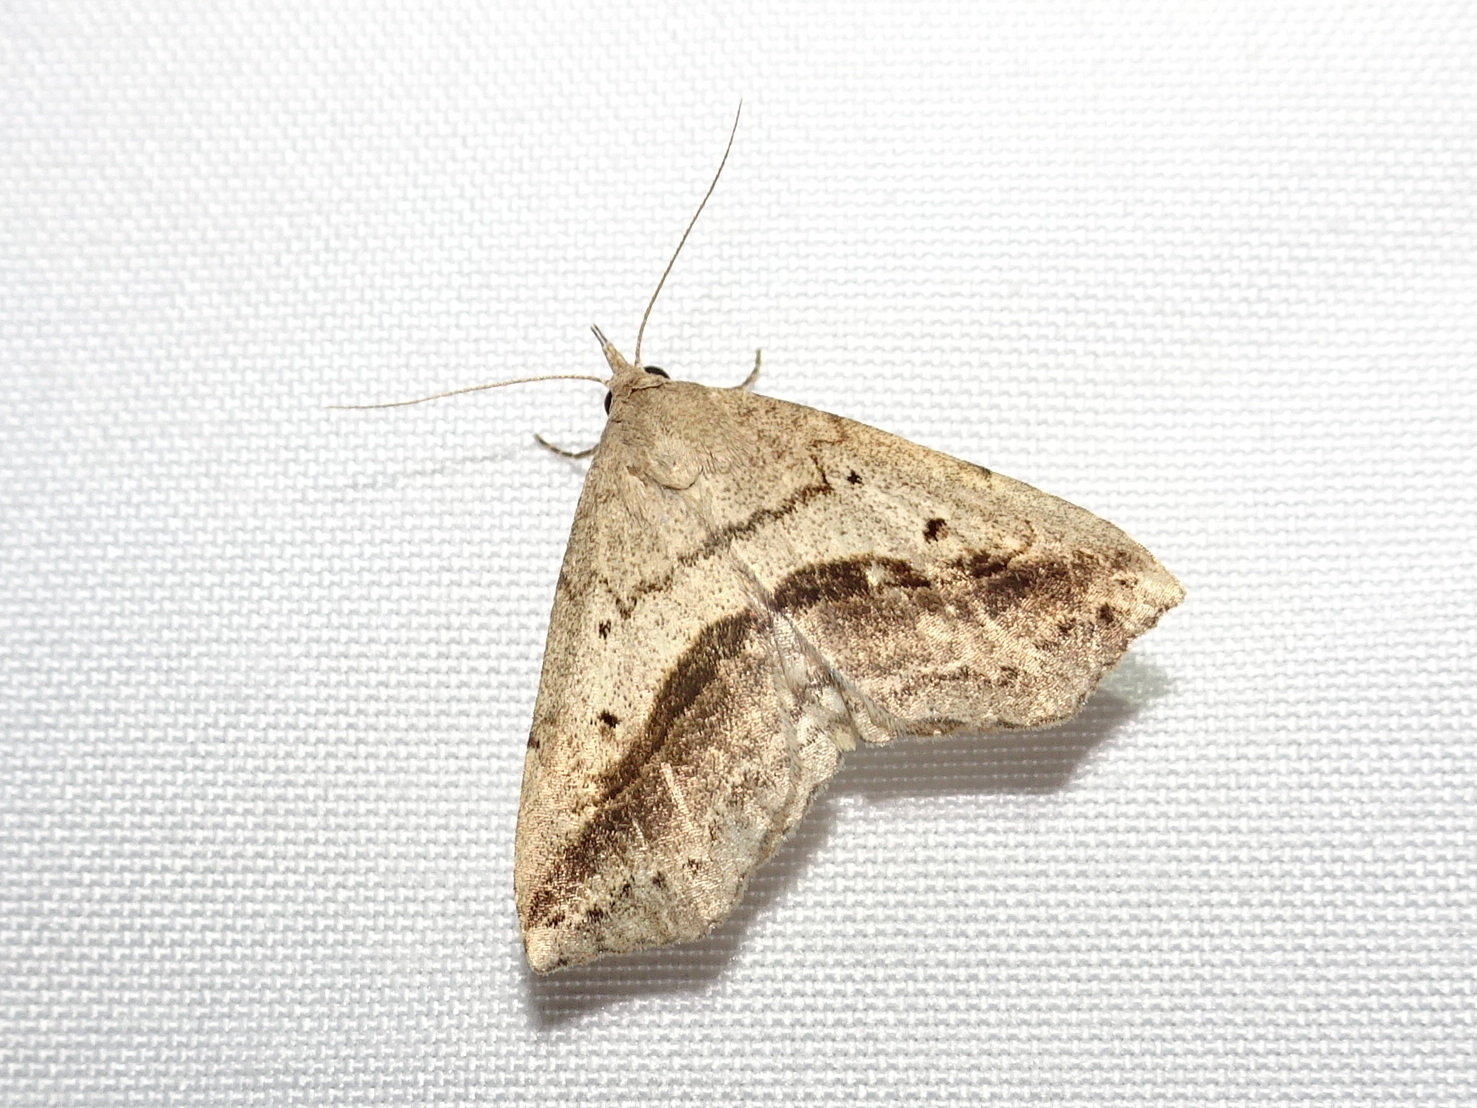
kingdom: Animalia
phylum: Arthropoda
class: Insecta
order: Lepidoptera
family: Erebidae
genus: Spargaloma
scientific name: Spargaloma perditalis
